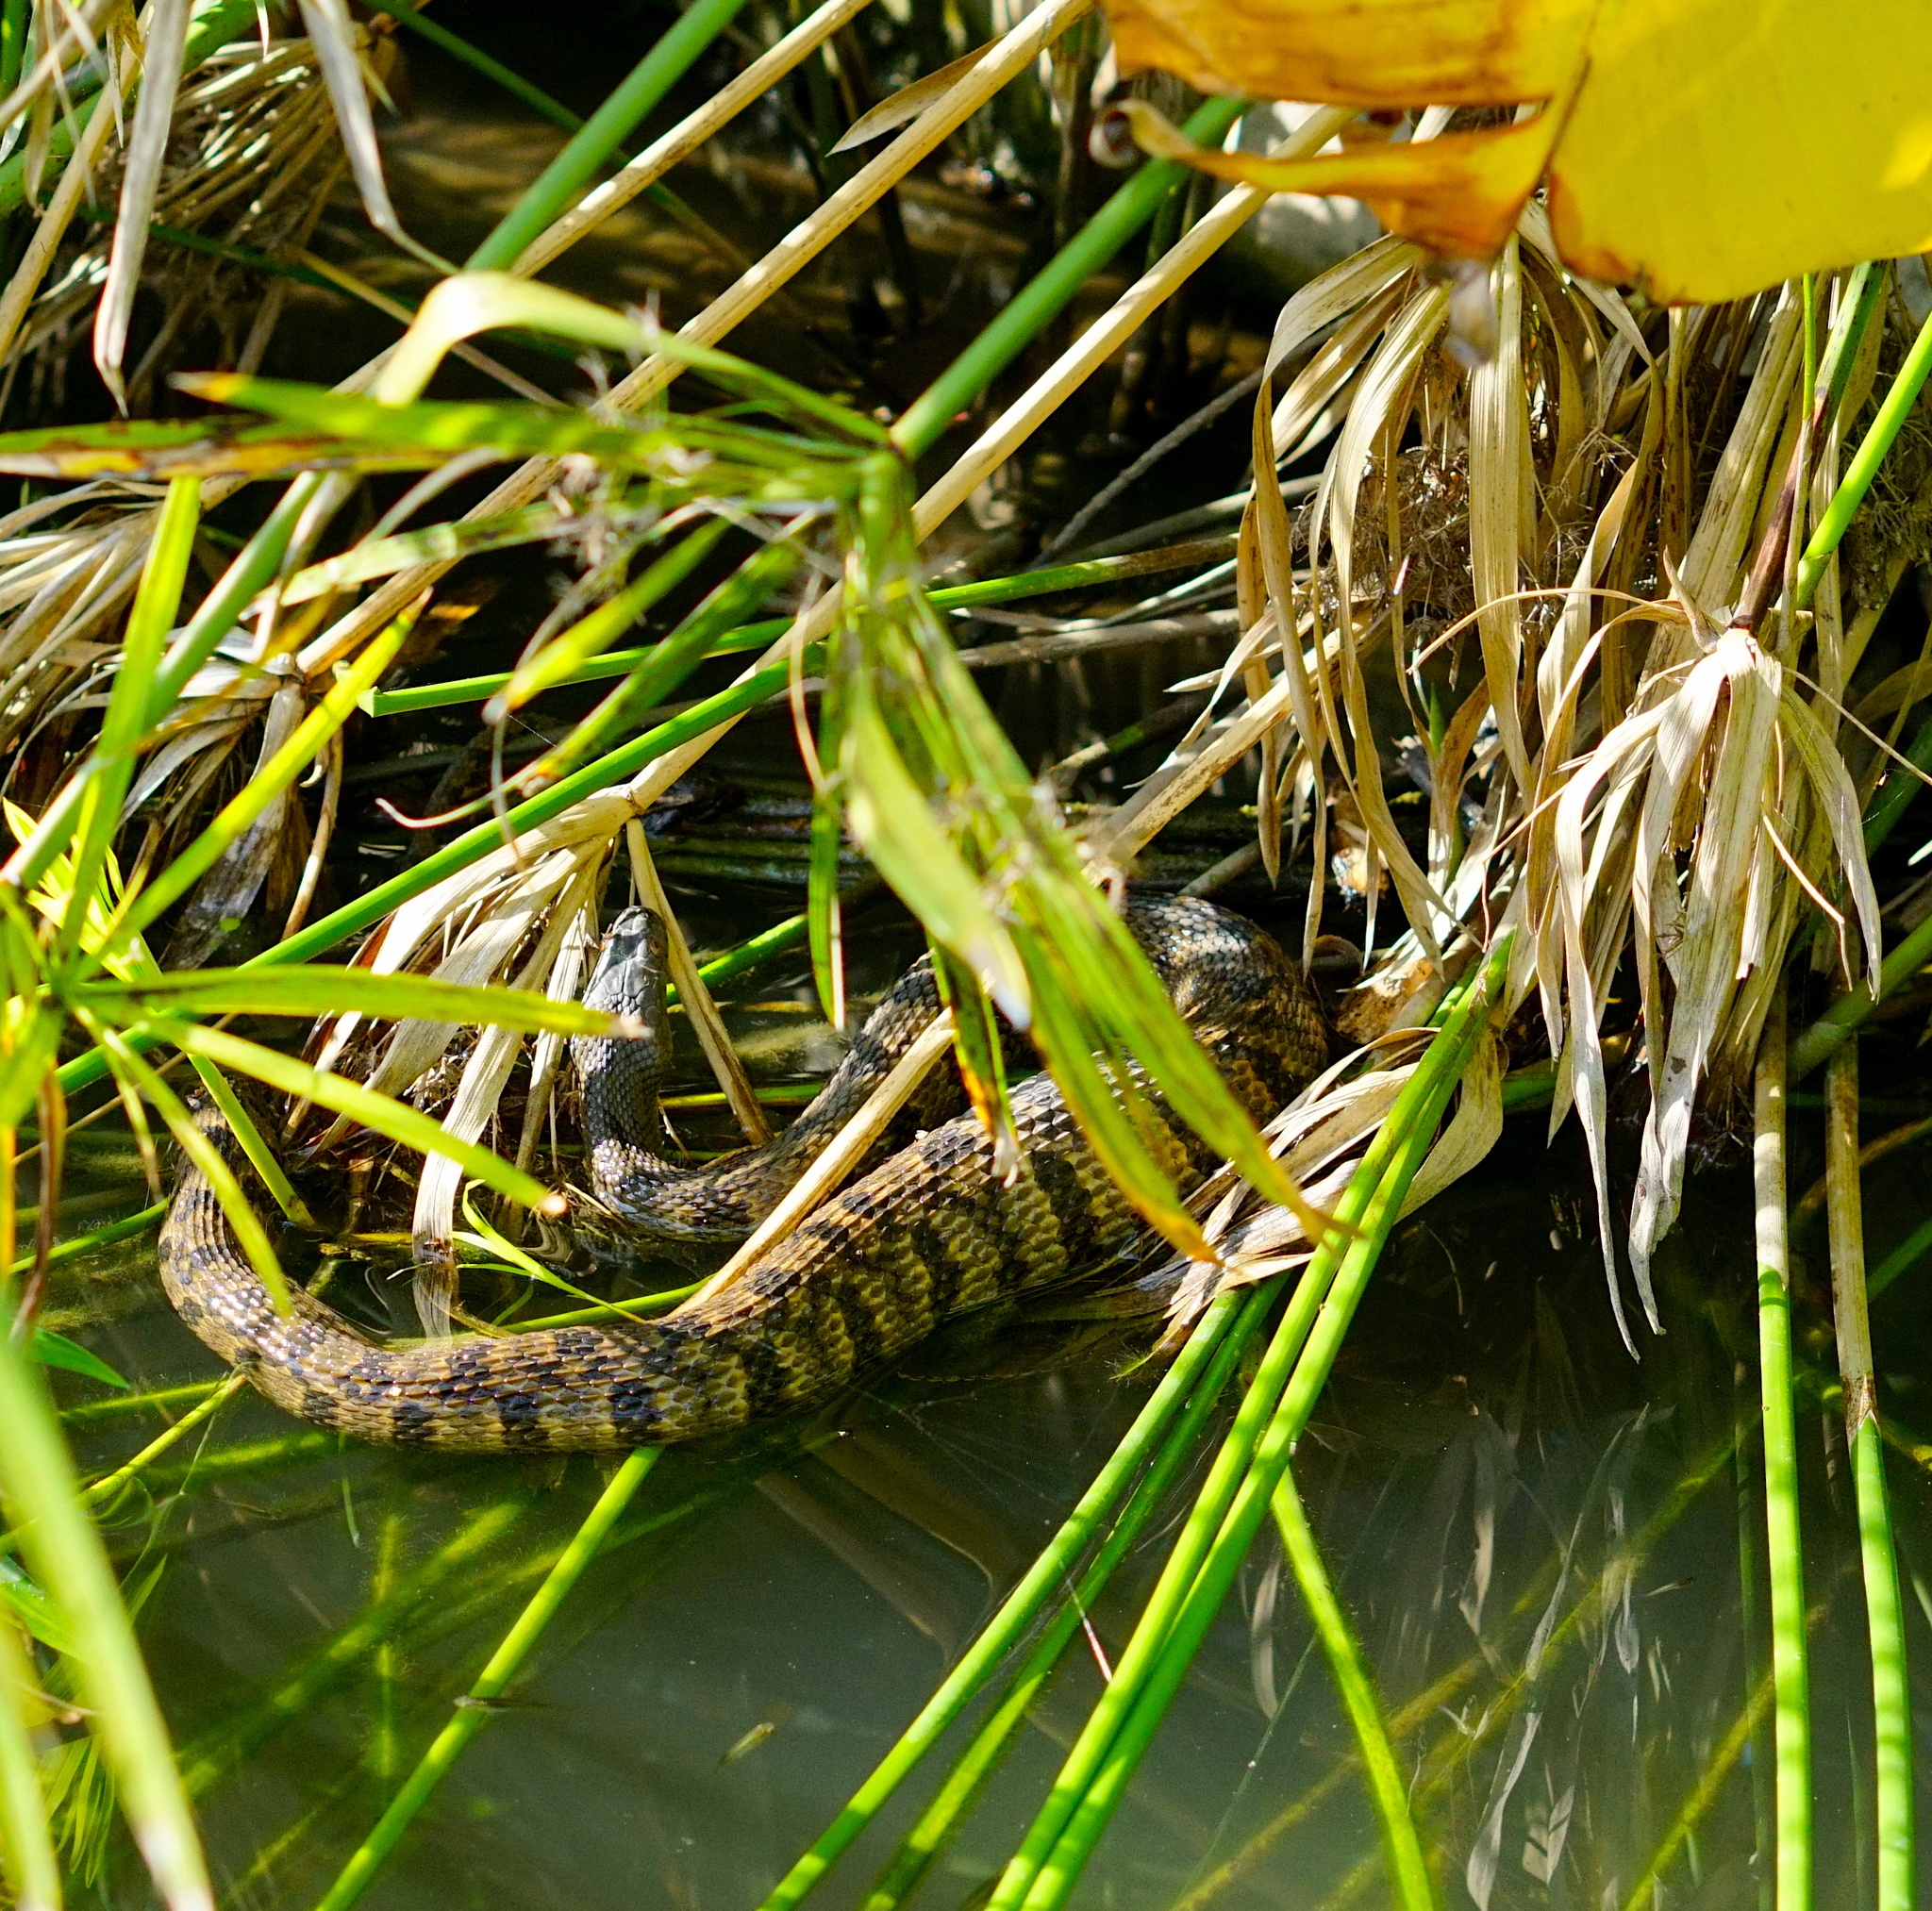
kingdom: Animalia
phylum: Chordata
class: Squamata
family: Colubridae
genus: Nerodia
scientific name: Nerodia rhombifer
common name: Diamondback water snake
